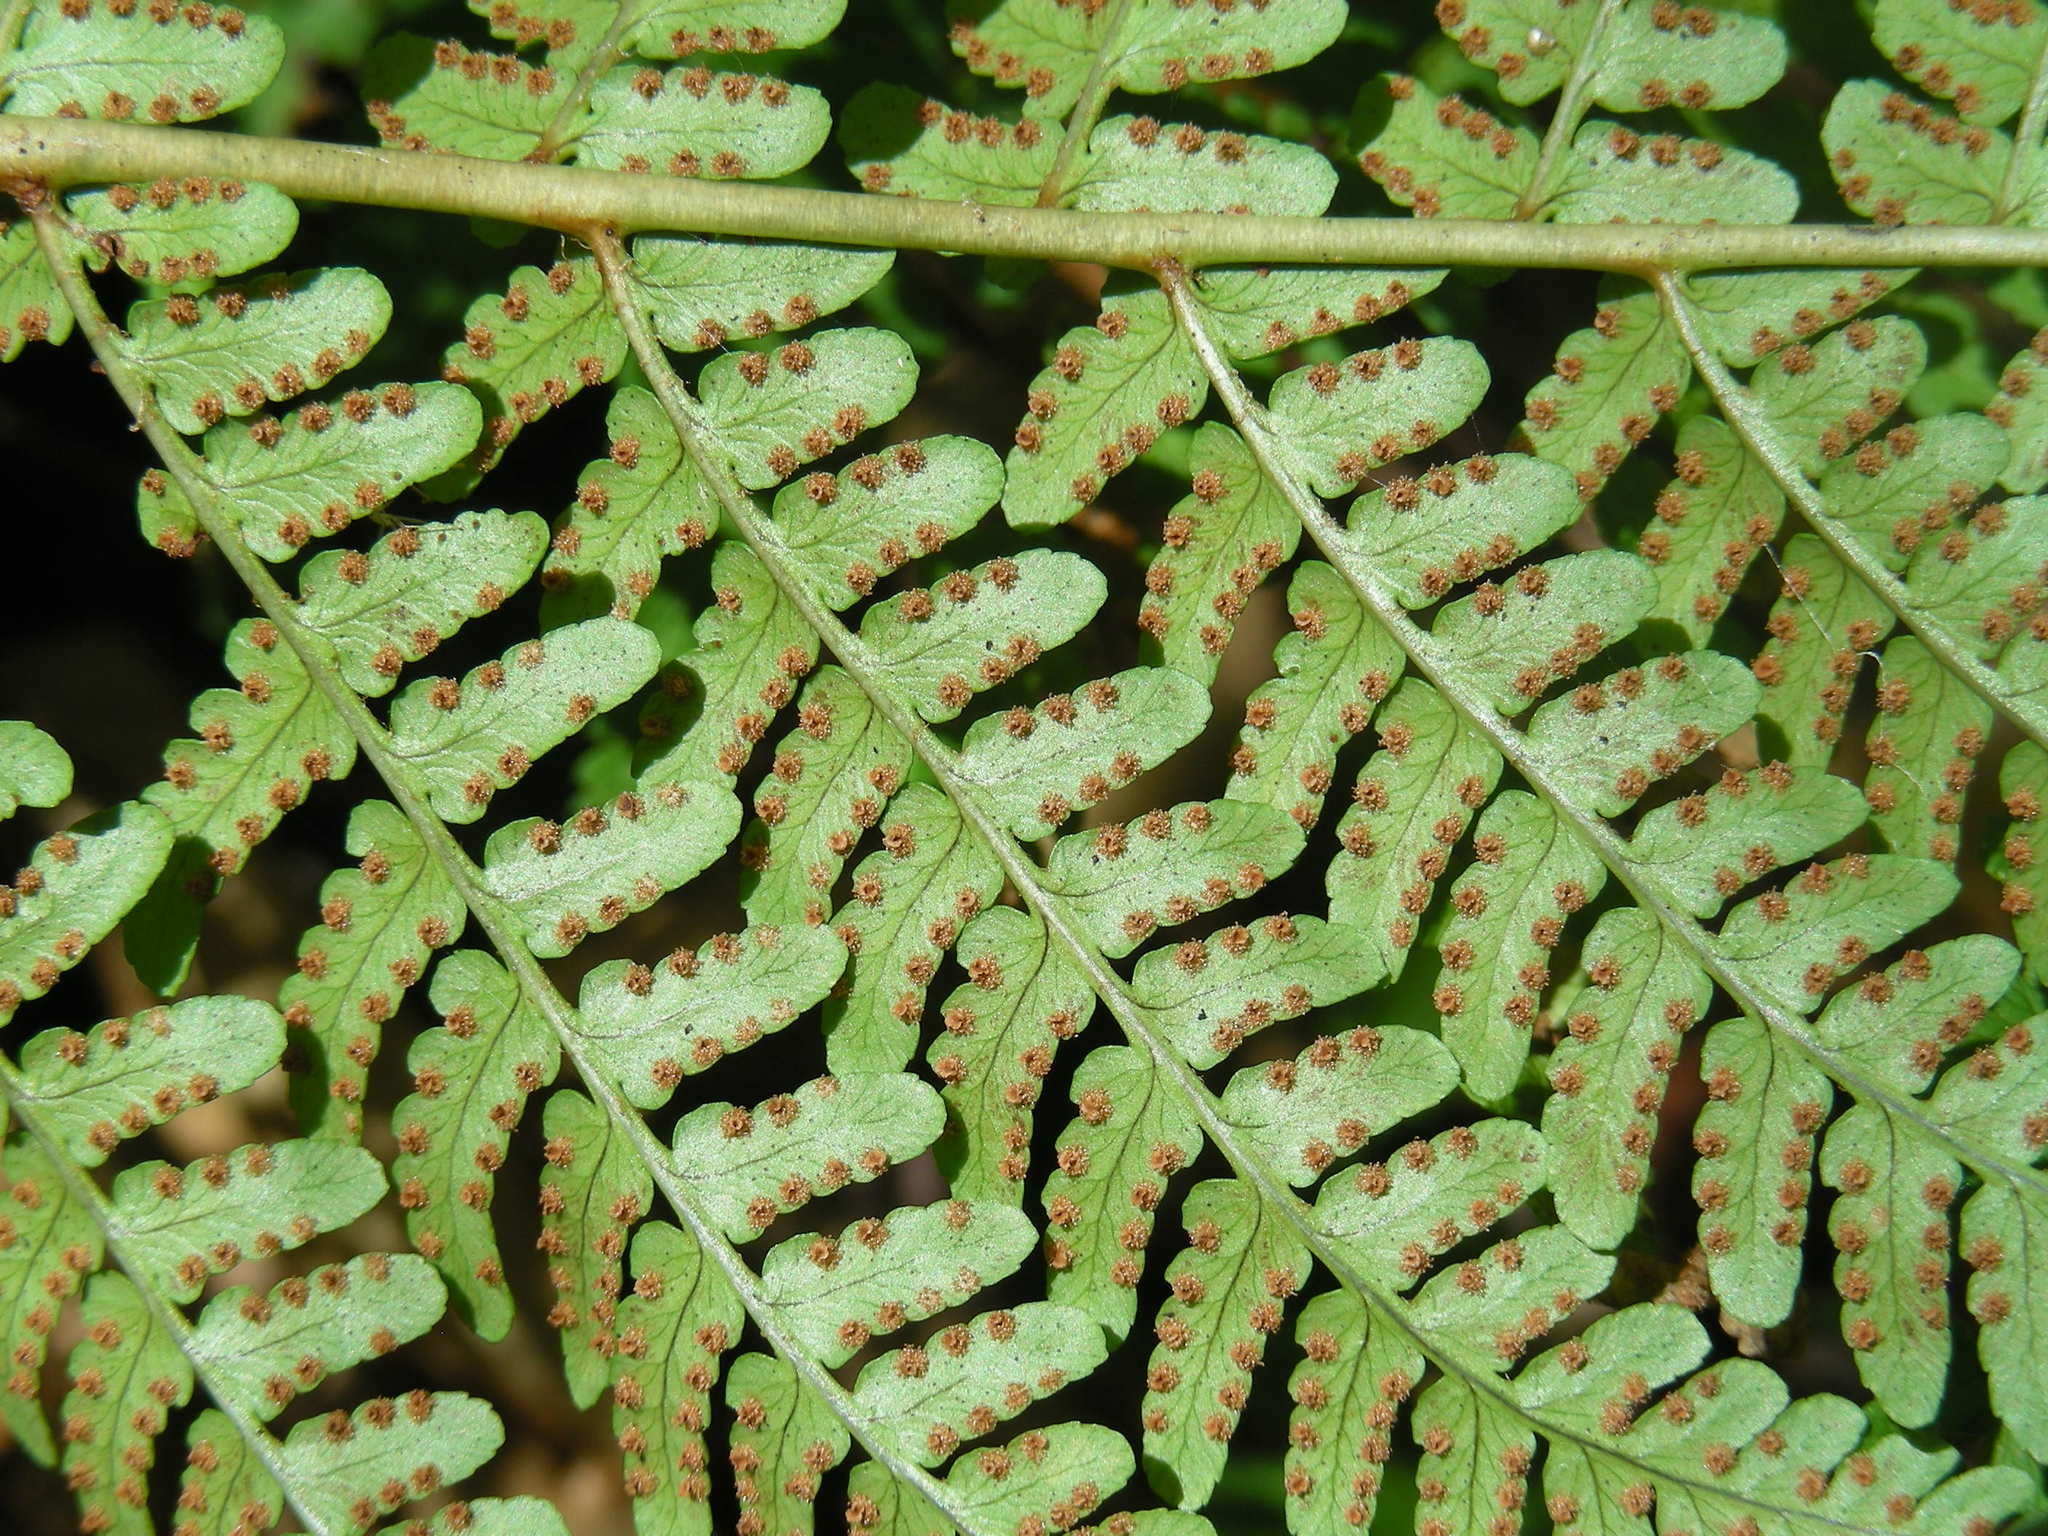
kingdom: Plantae
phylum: Tracheophyta
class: Polypodiopsida
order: Polypodiales
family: Dryopteridaceae
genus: Dryopteris
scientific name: Dryopteris marginalis
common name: Marginal wood fern
